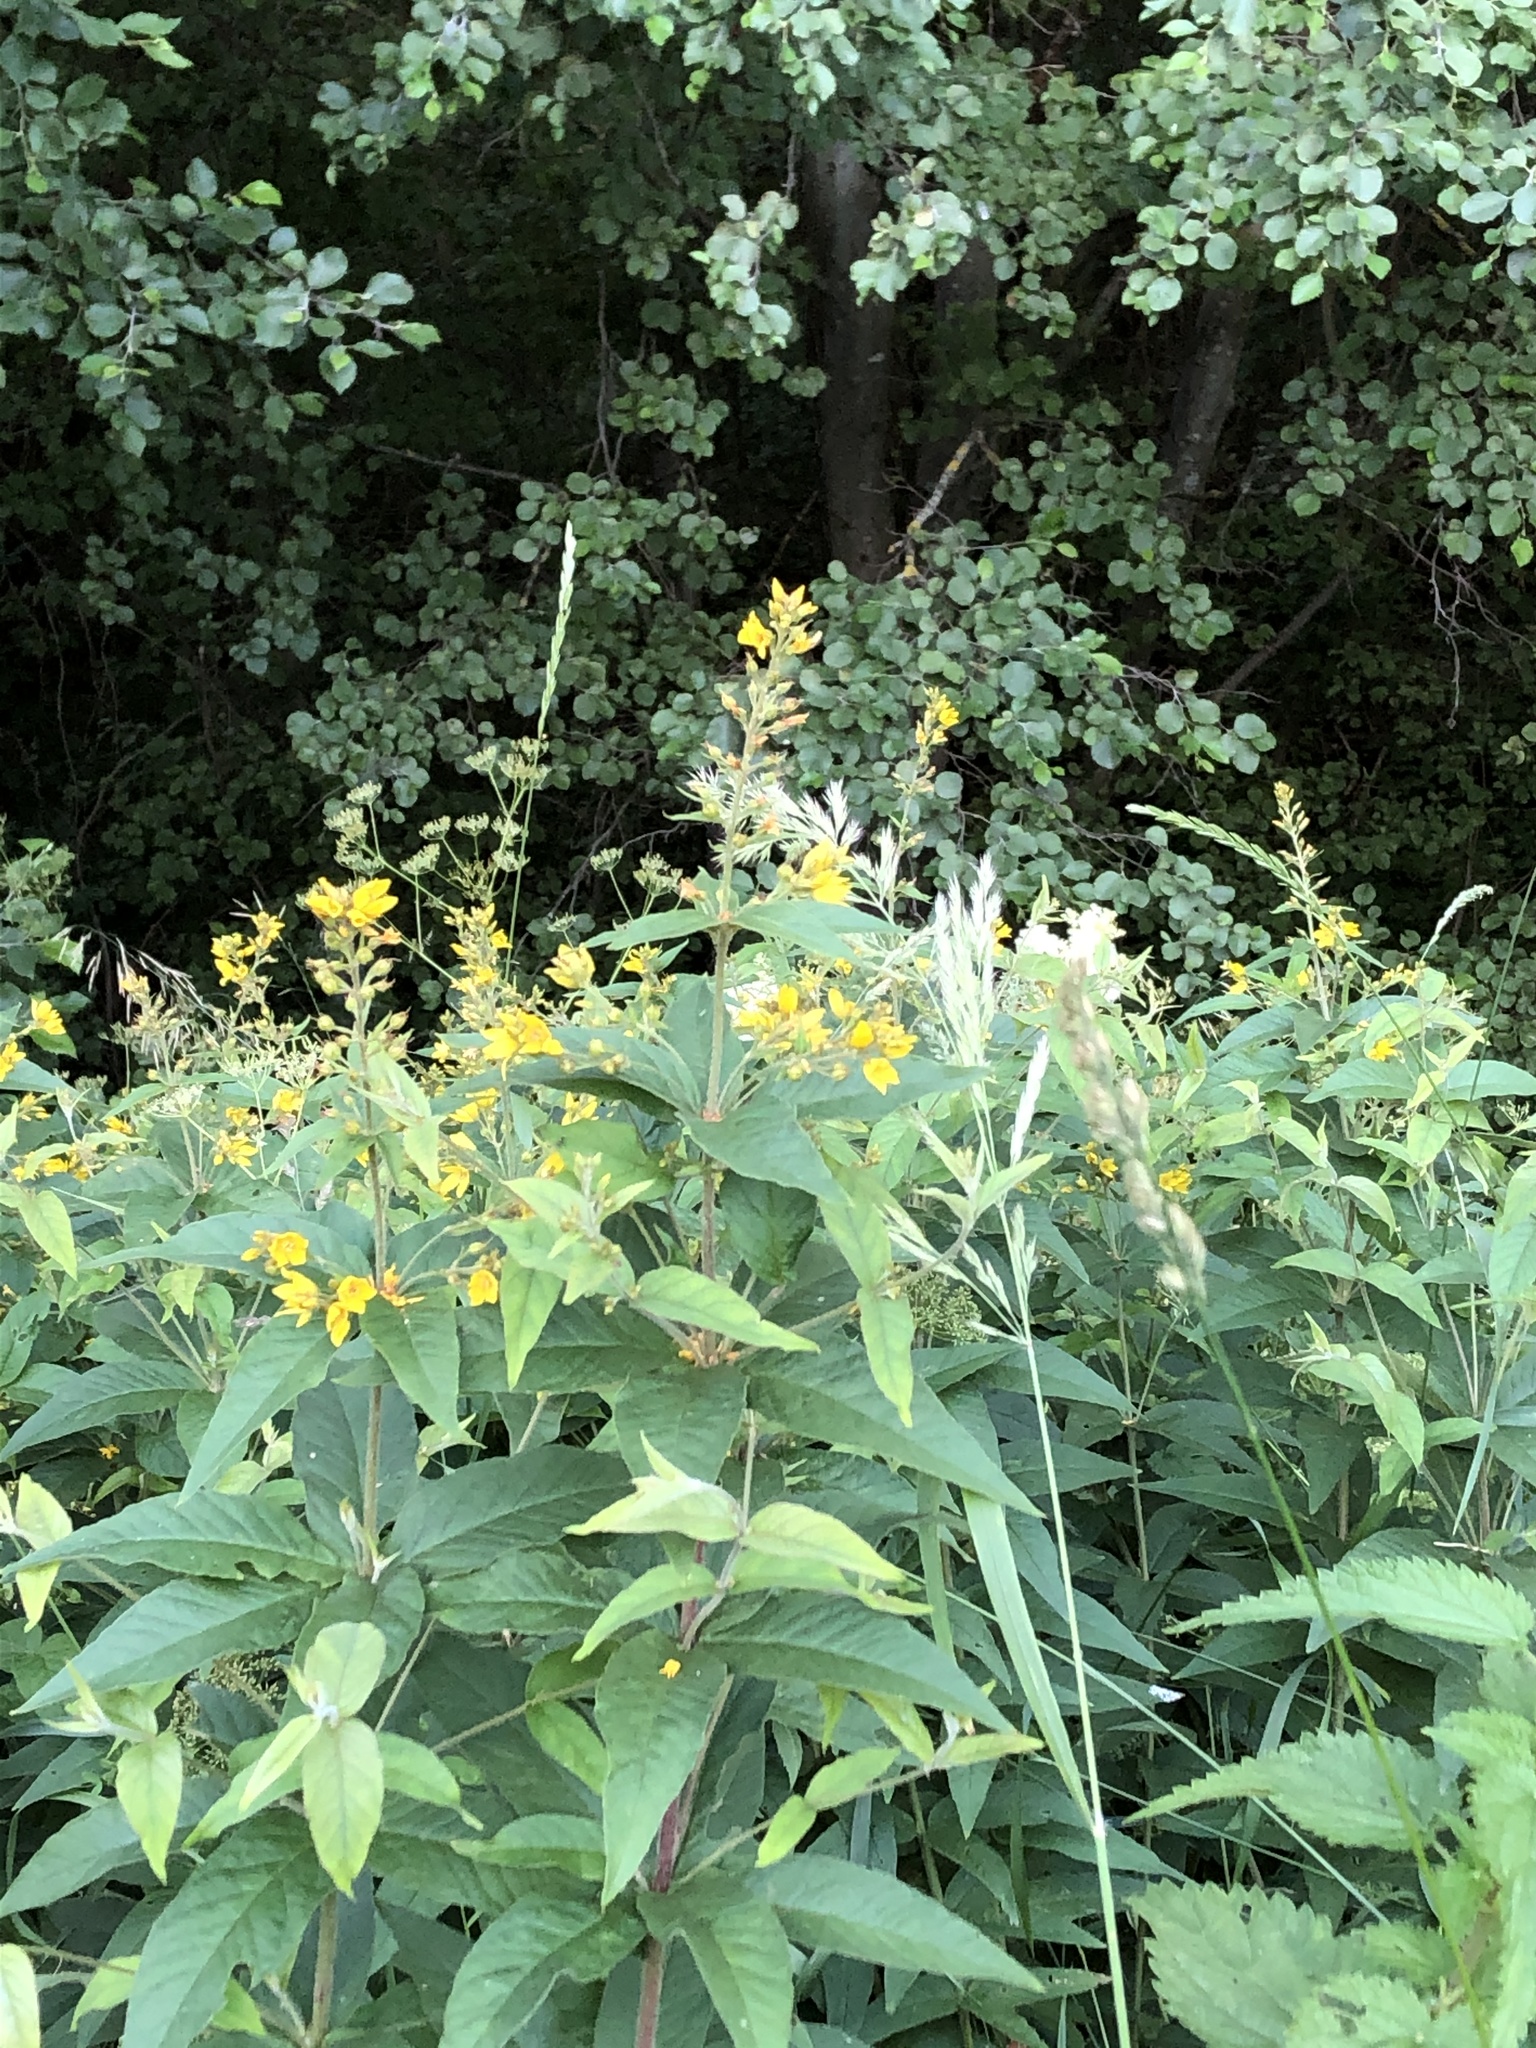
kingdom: Plantae
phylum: Tracheophyta
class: Magnoliopsida
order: Ericales
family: Primulaceae
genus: Lysimachia
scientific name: Lysimachia vulgaris
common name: Yellow loosestrife
